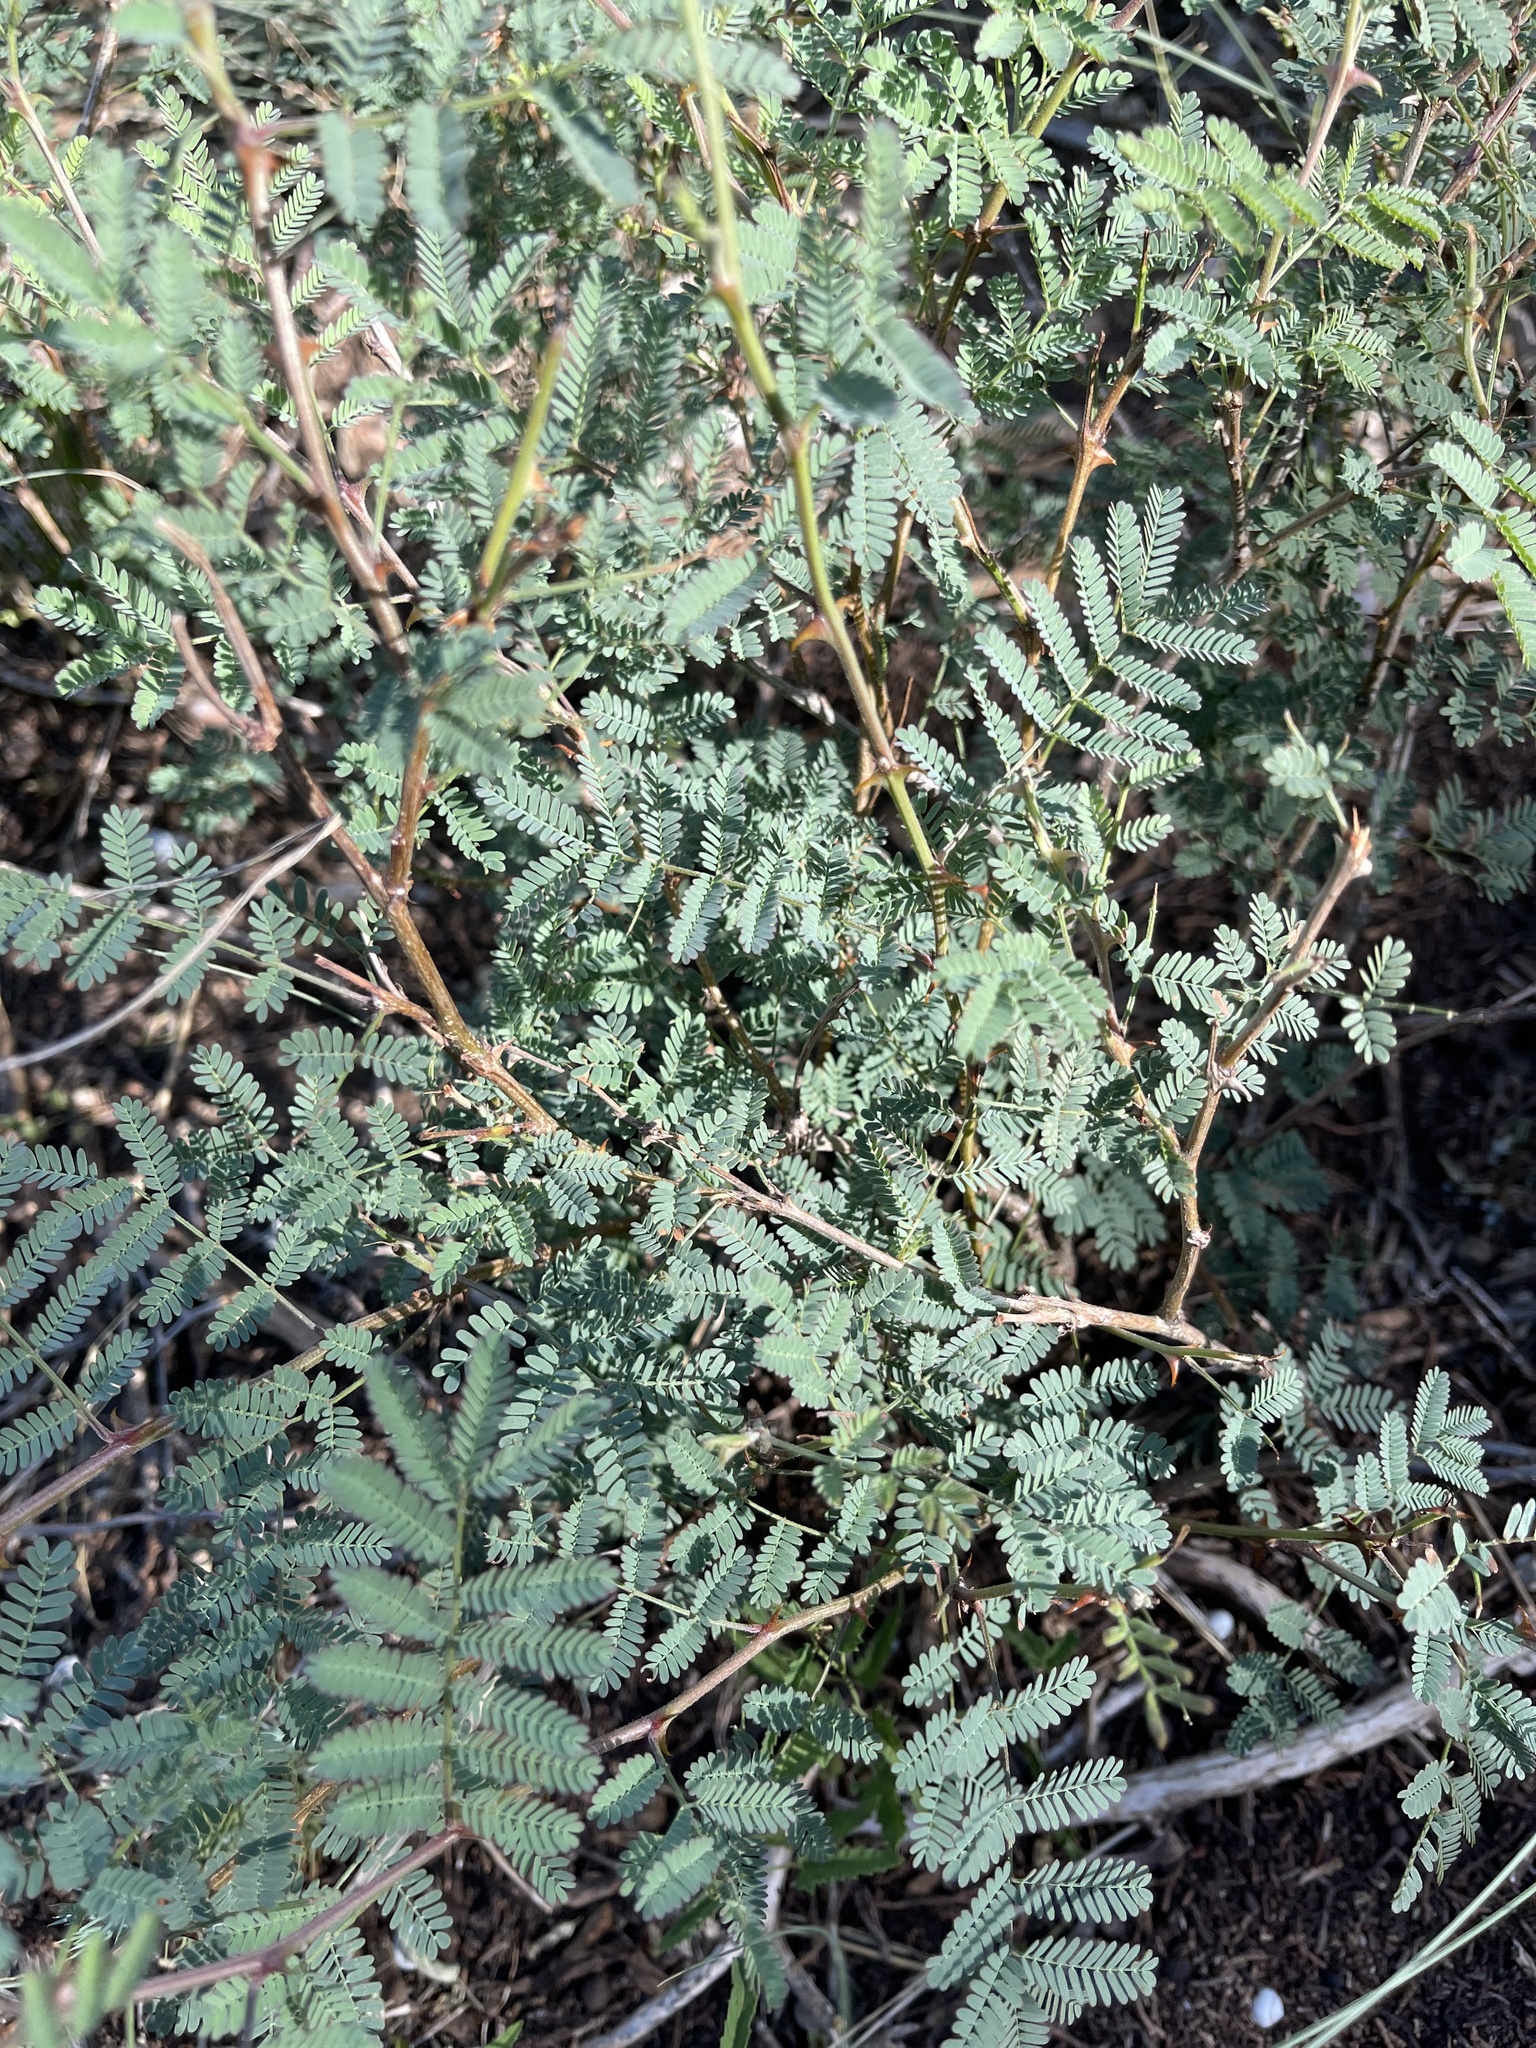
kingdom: Plantae
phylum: Tracheophyta
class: Magnoliopsida
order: Fabales
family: Fabaceae
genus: Mimosa
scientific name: Mimosa aculeaticarpa
